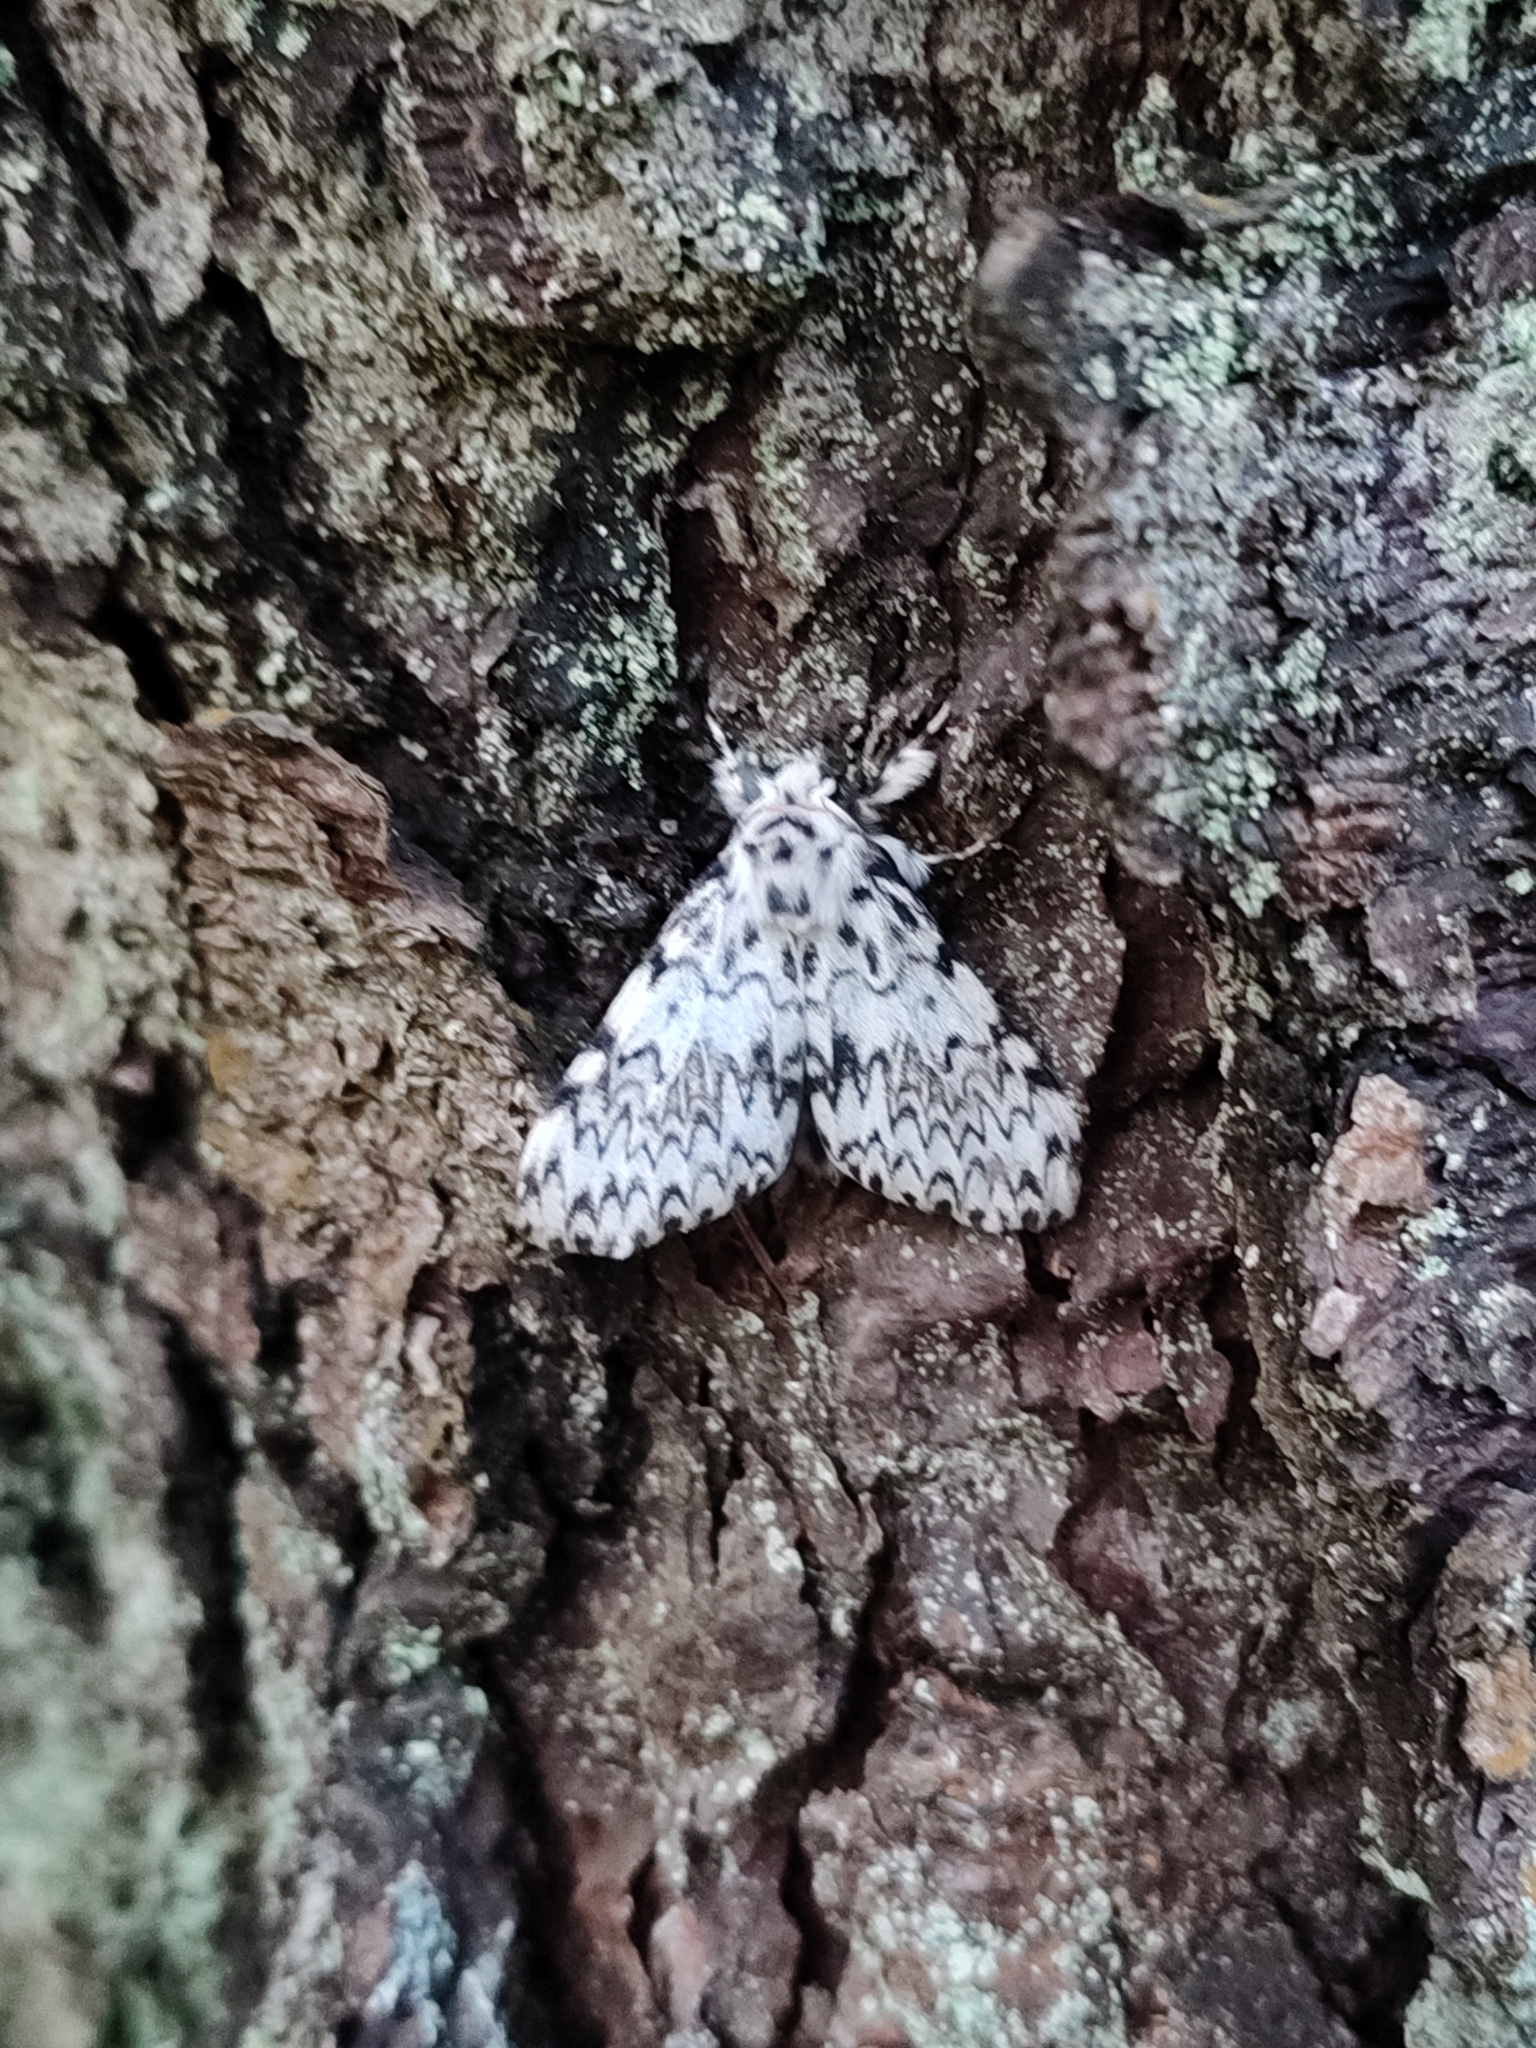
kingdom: Animalia
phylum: Arthropoda
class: Insecta
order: Lepidoptera
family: Erebidae
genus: Lymantria
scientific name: Lymantria monacha
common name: Black arches
